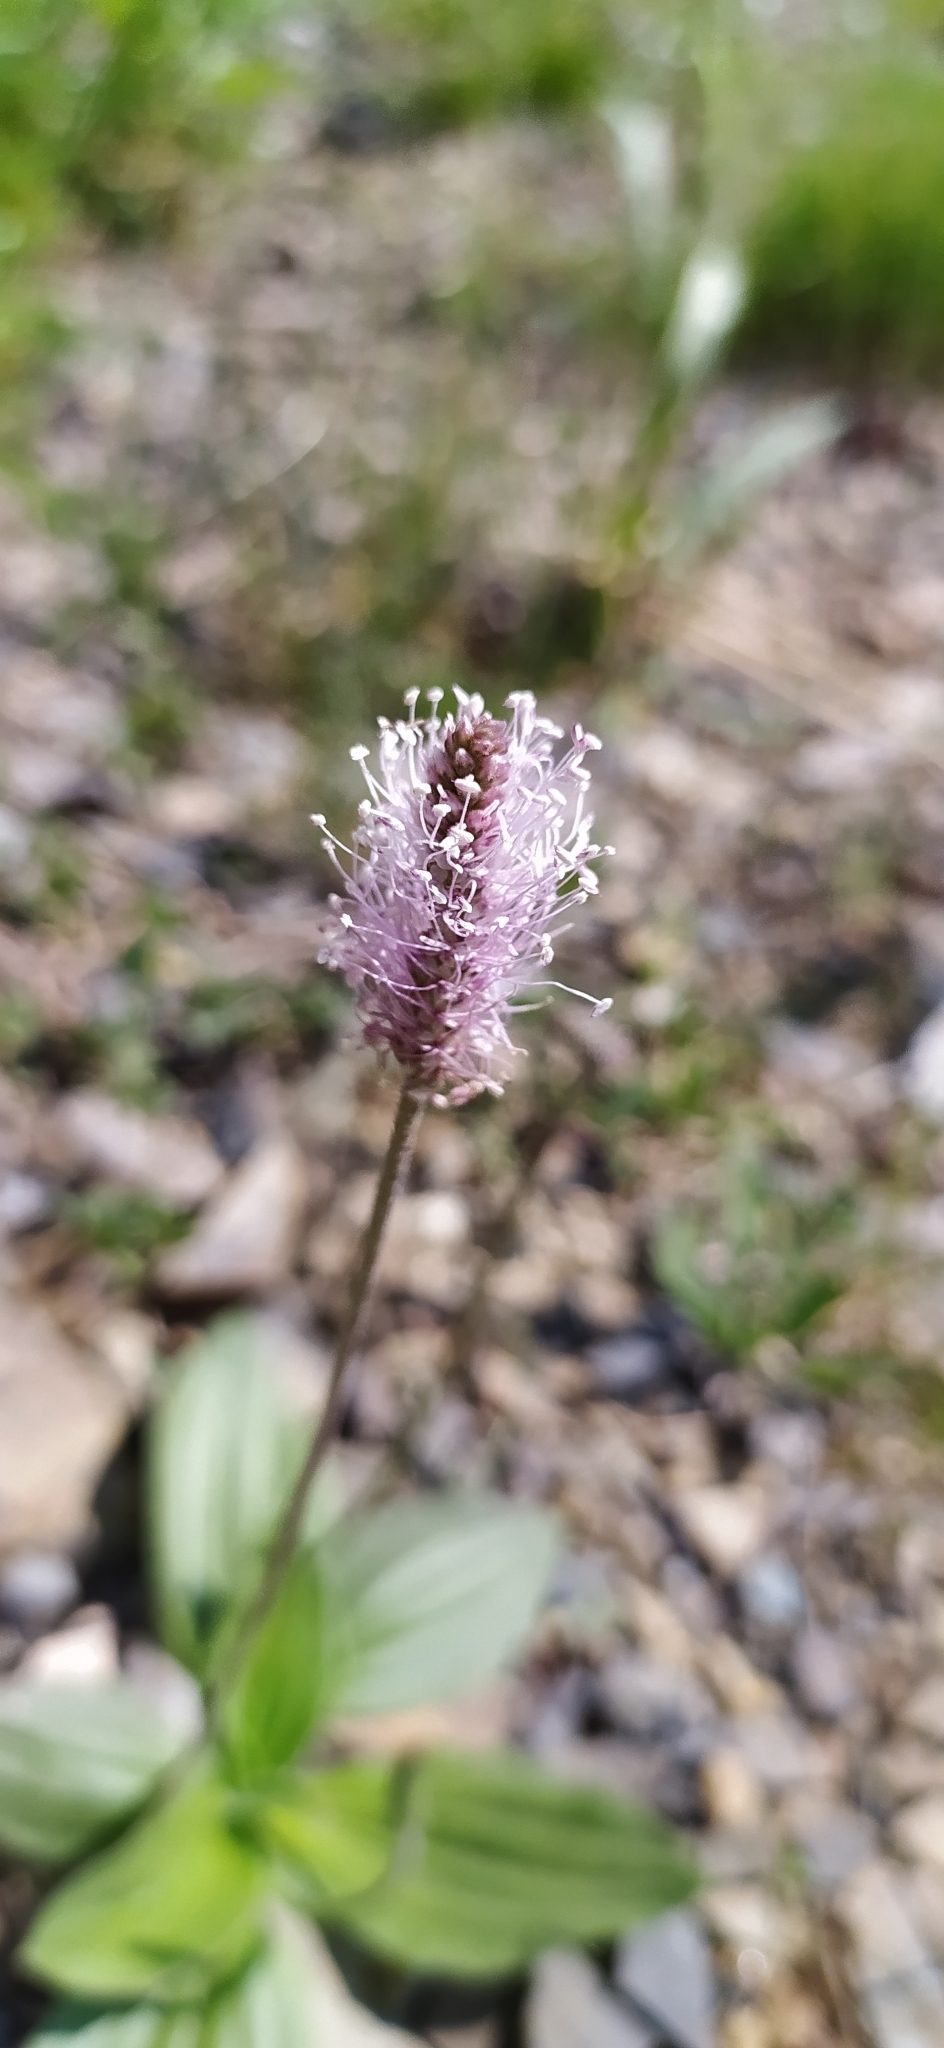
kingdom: Plantae
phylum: Tracheophyta
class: Magnoliopsida
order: Lamiales
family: Plantaginaceae
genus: Plantago
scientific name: Plantago media
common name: Hoary plantain
